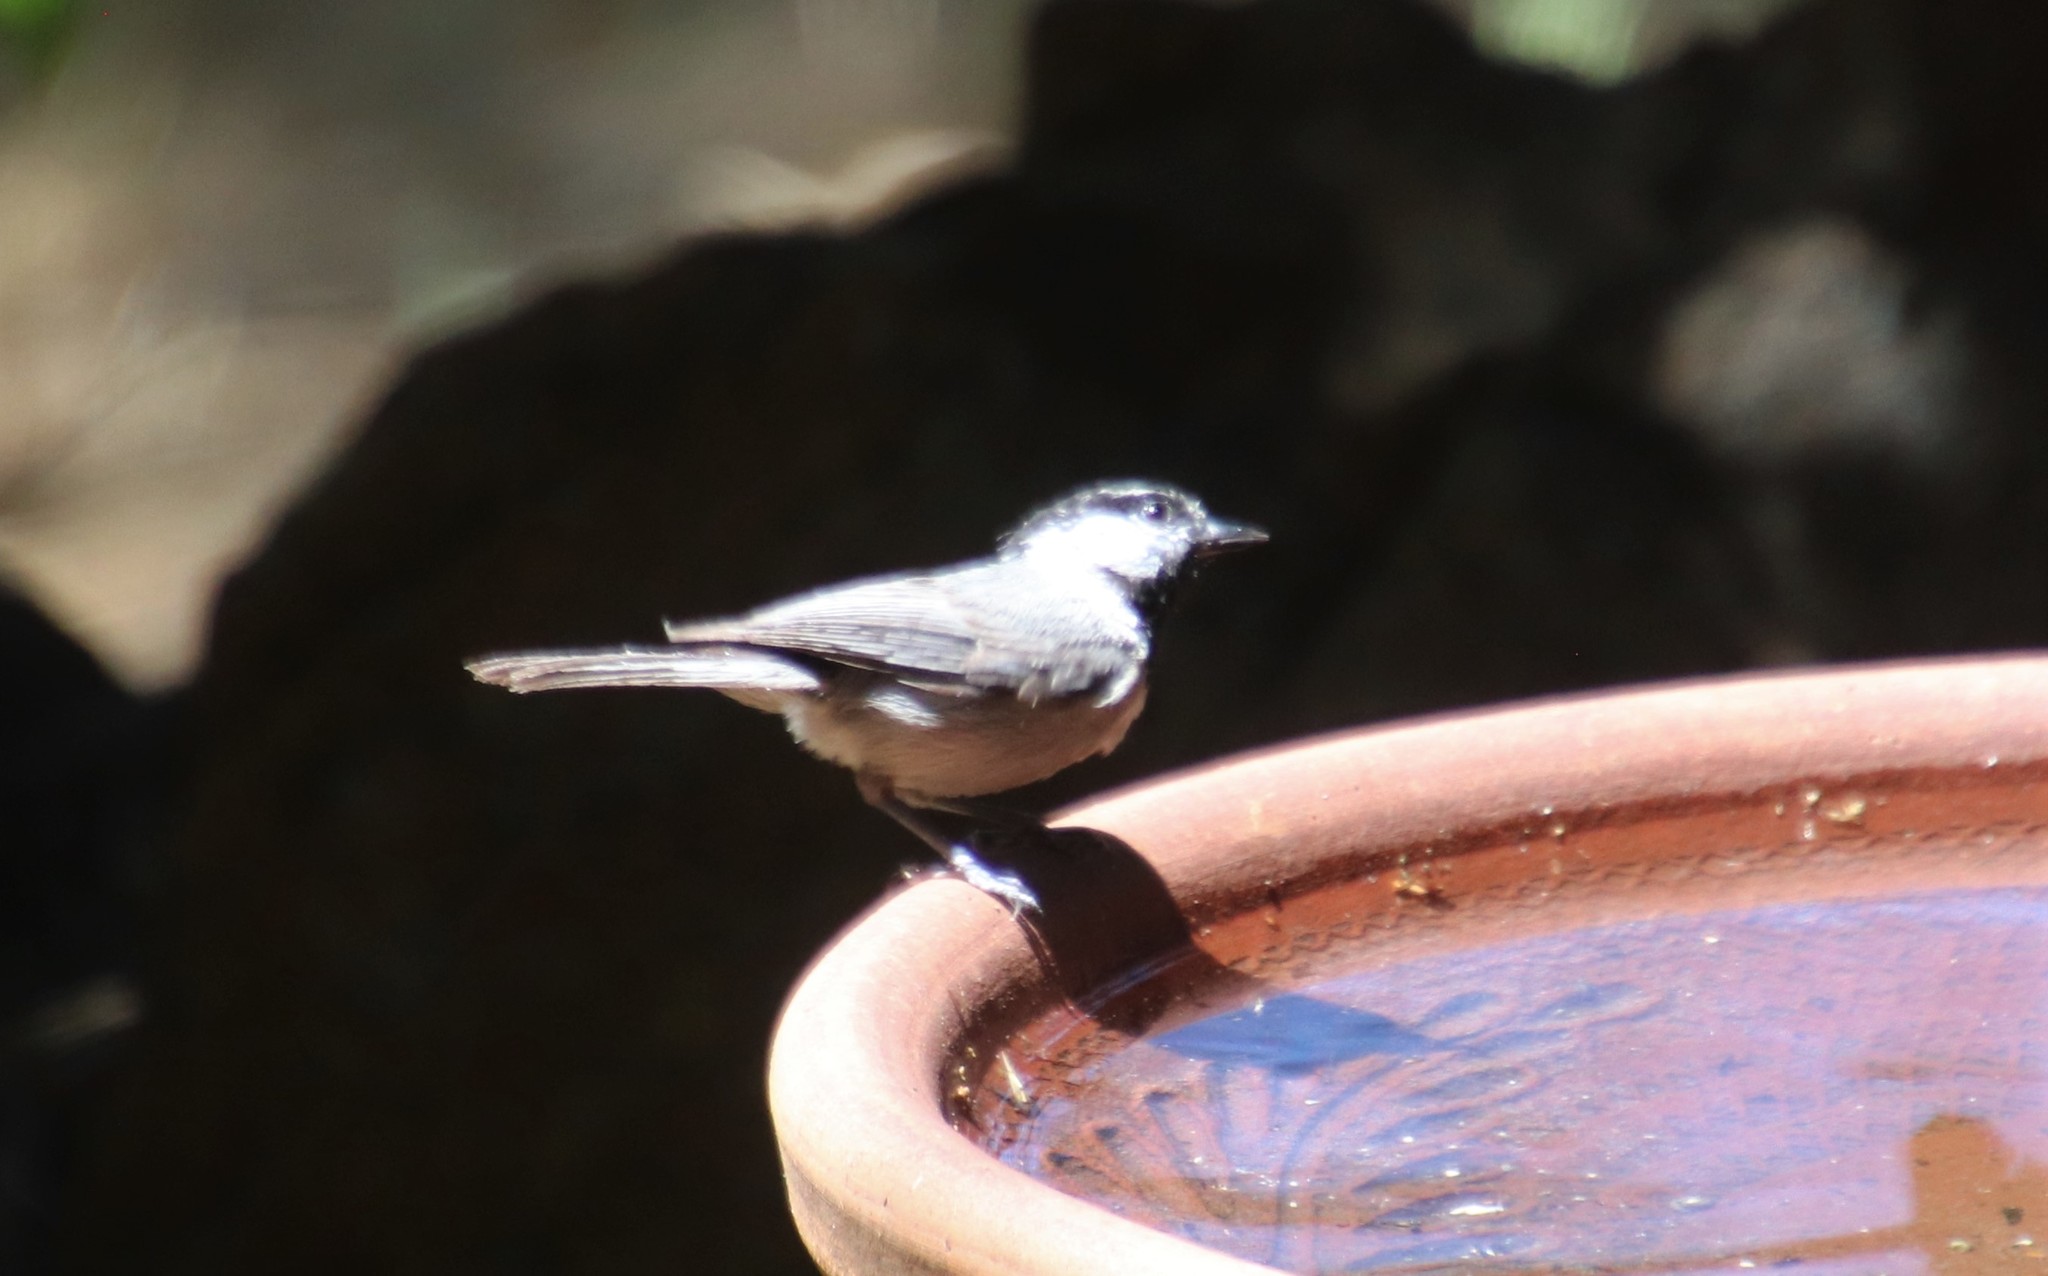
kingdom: Animalia
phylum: Chordata
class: Aves
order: Passeriformes
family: Paridae
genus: Poecile
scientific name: Poecile gambeli
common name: Mountain chickadee
